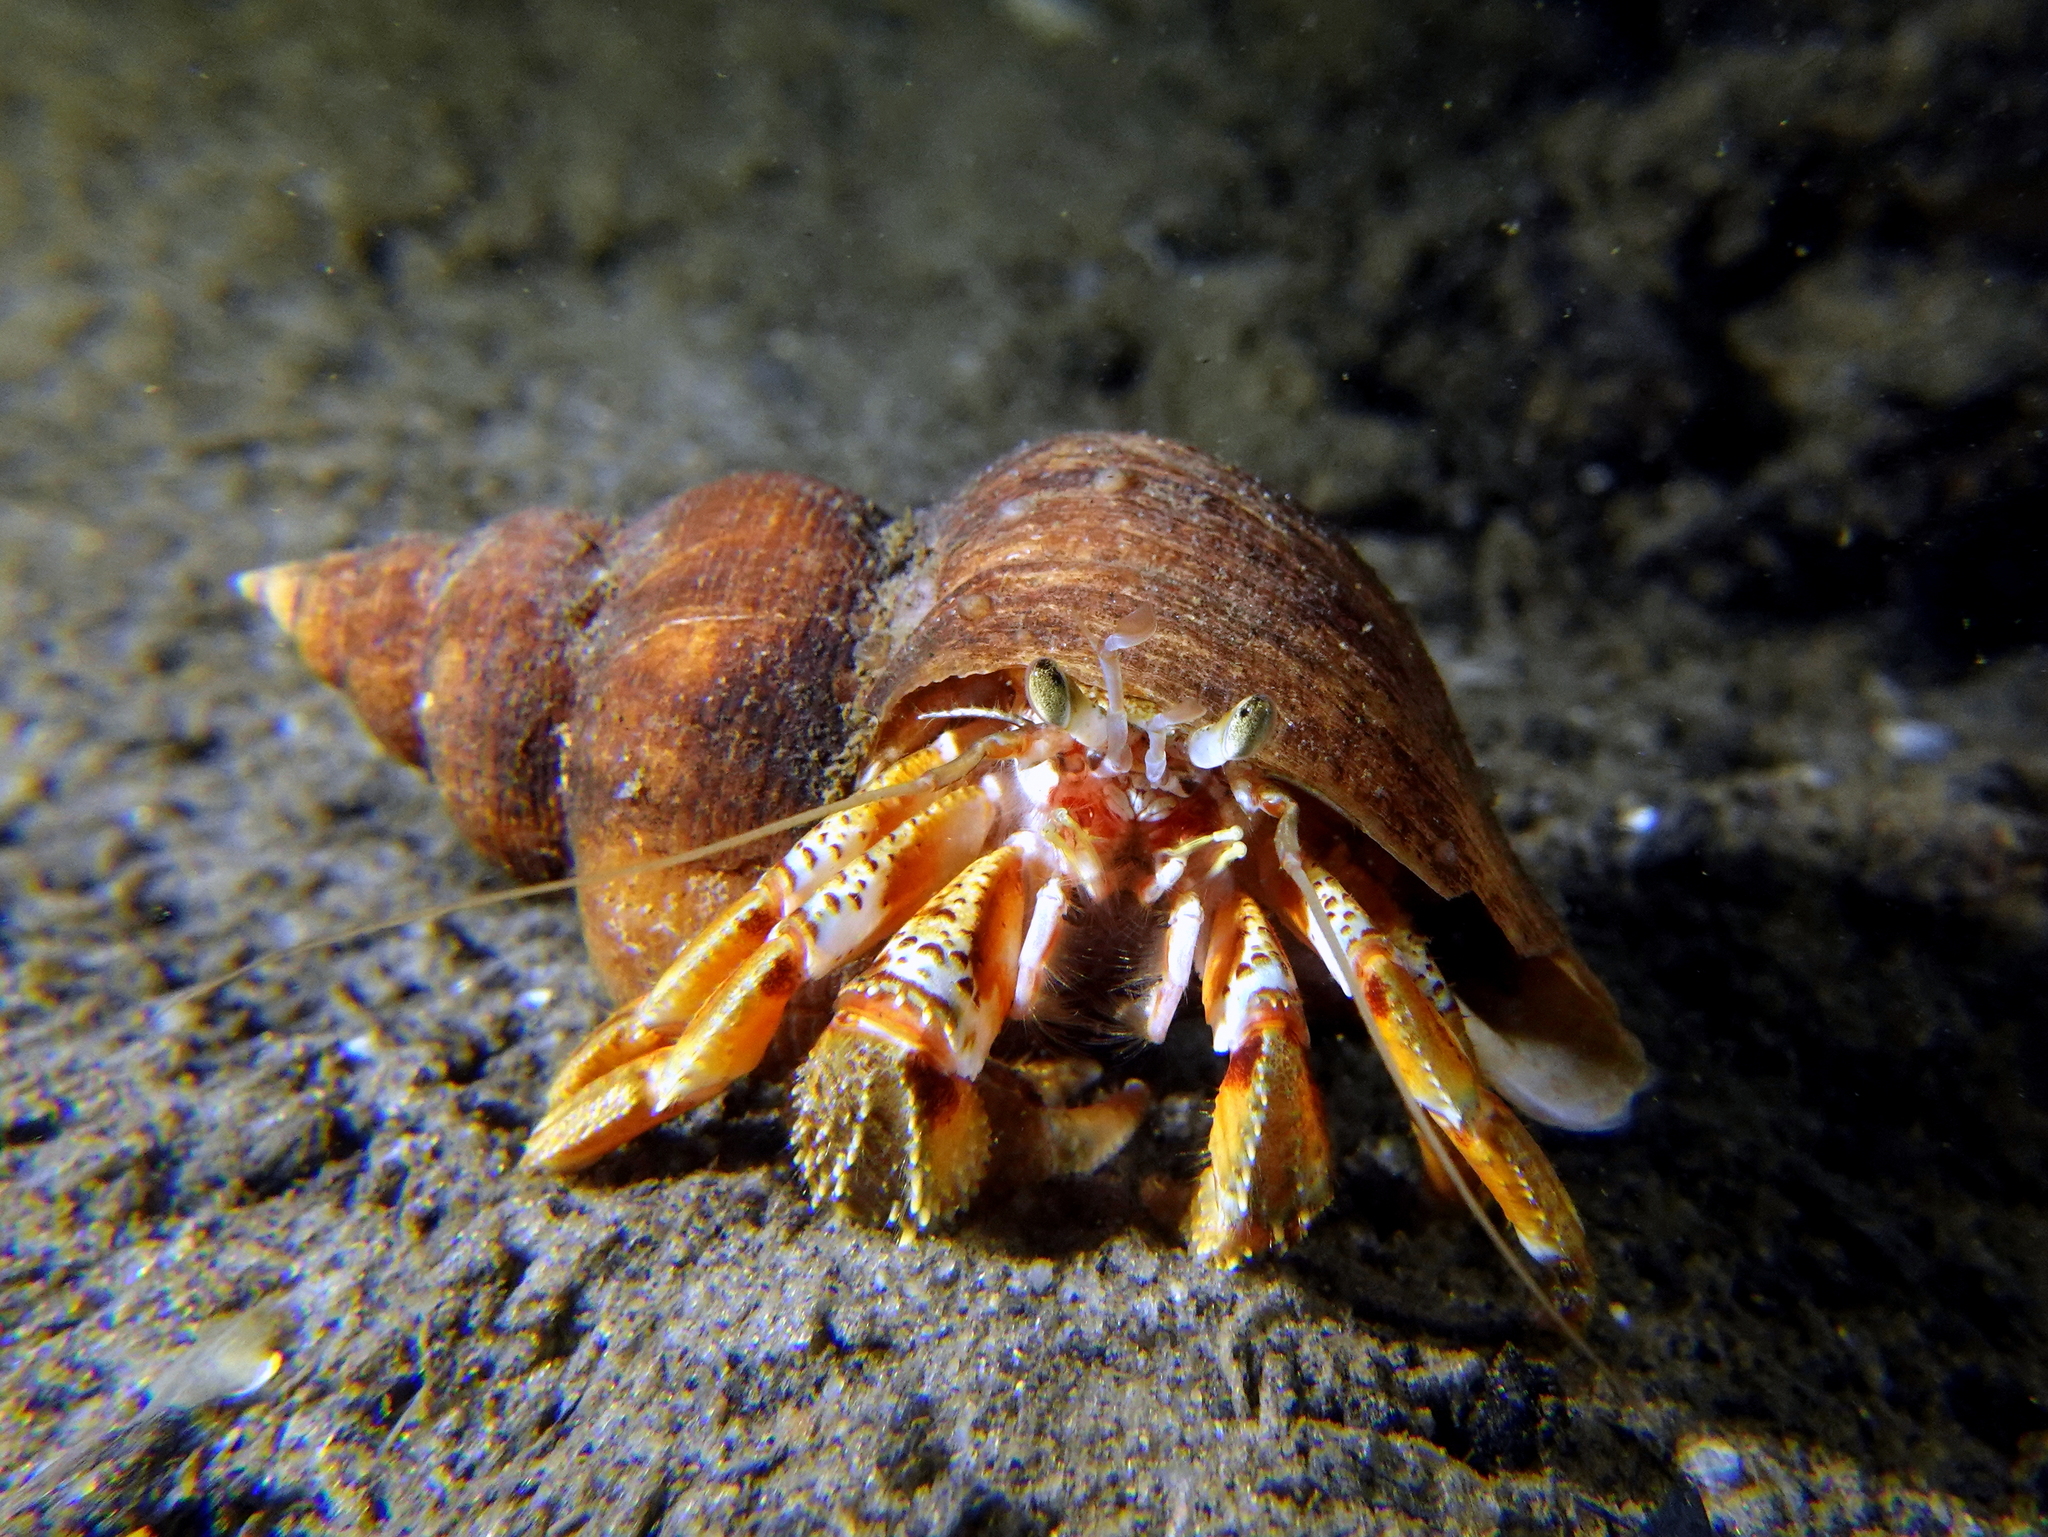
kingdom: Animalia
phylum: Arthropoda
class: Malacostraca
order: Decapoda
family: Paguridae
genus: Pagurus
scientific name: Pagurus bernhardus
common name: Hermit crab
